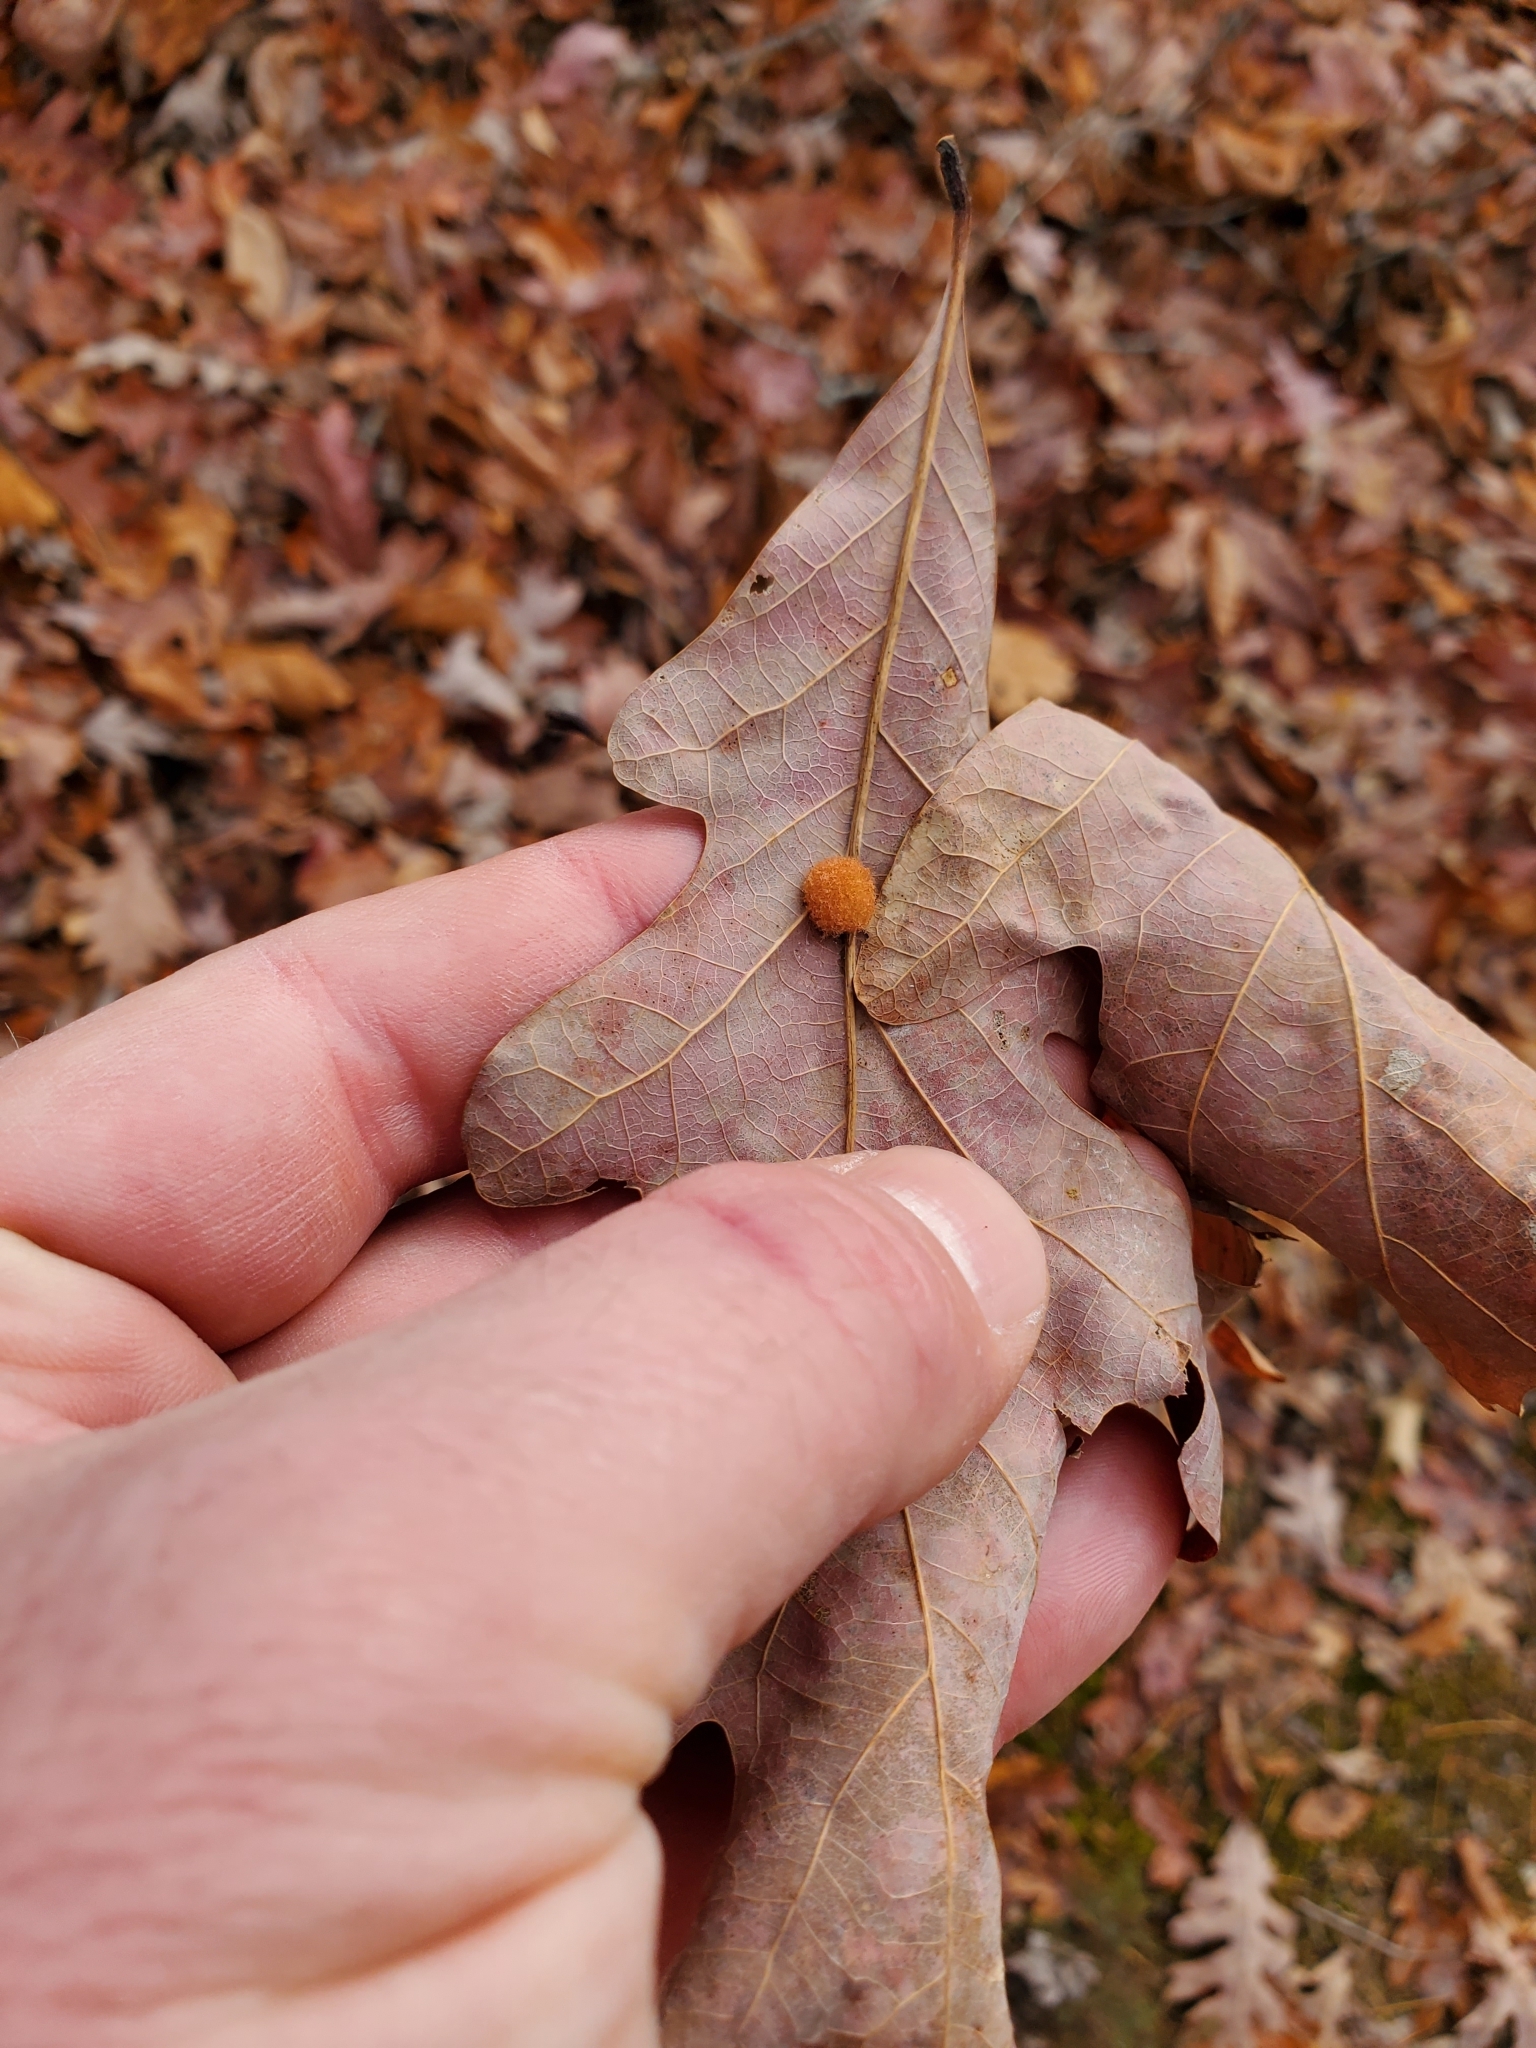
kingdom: Animalia
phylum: Arthropoda
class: Insecta
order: Hymenoptera
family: Cynipidae
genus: Andricus
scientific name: Andricus quercusflocci
